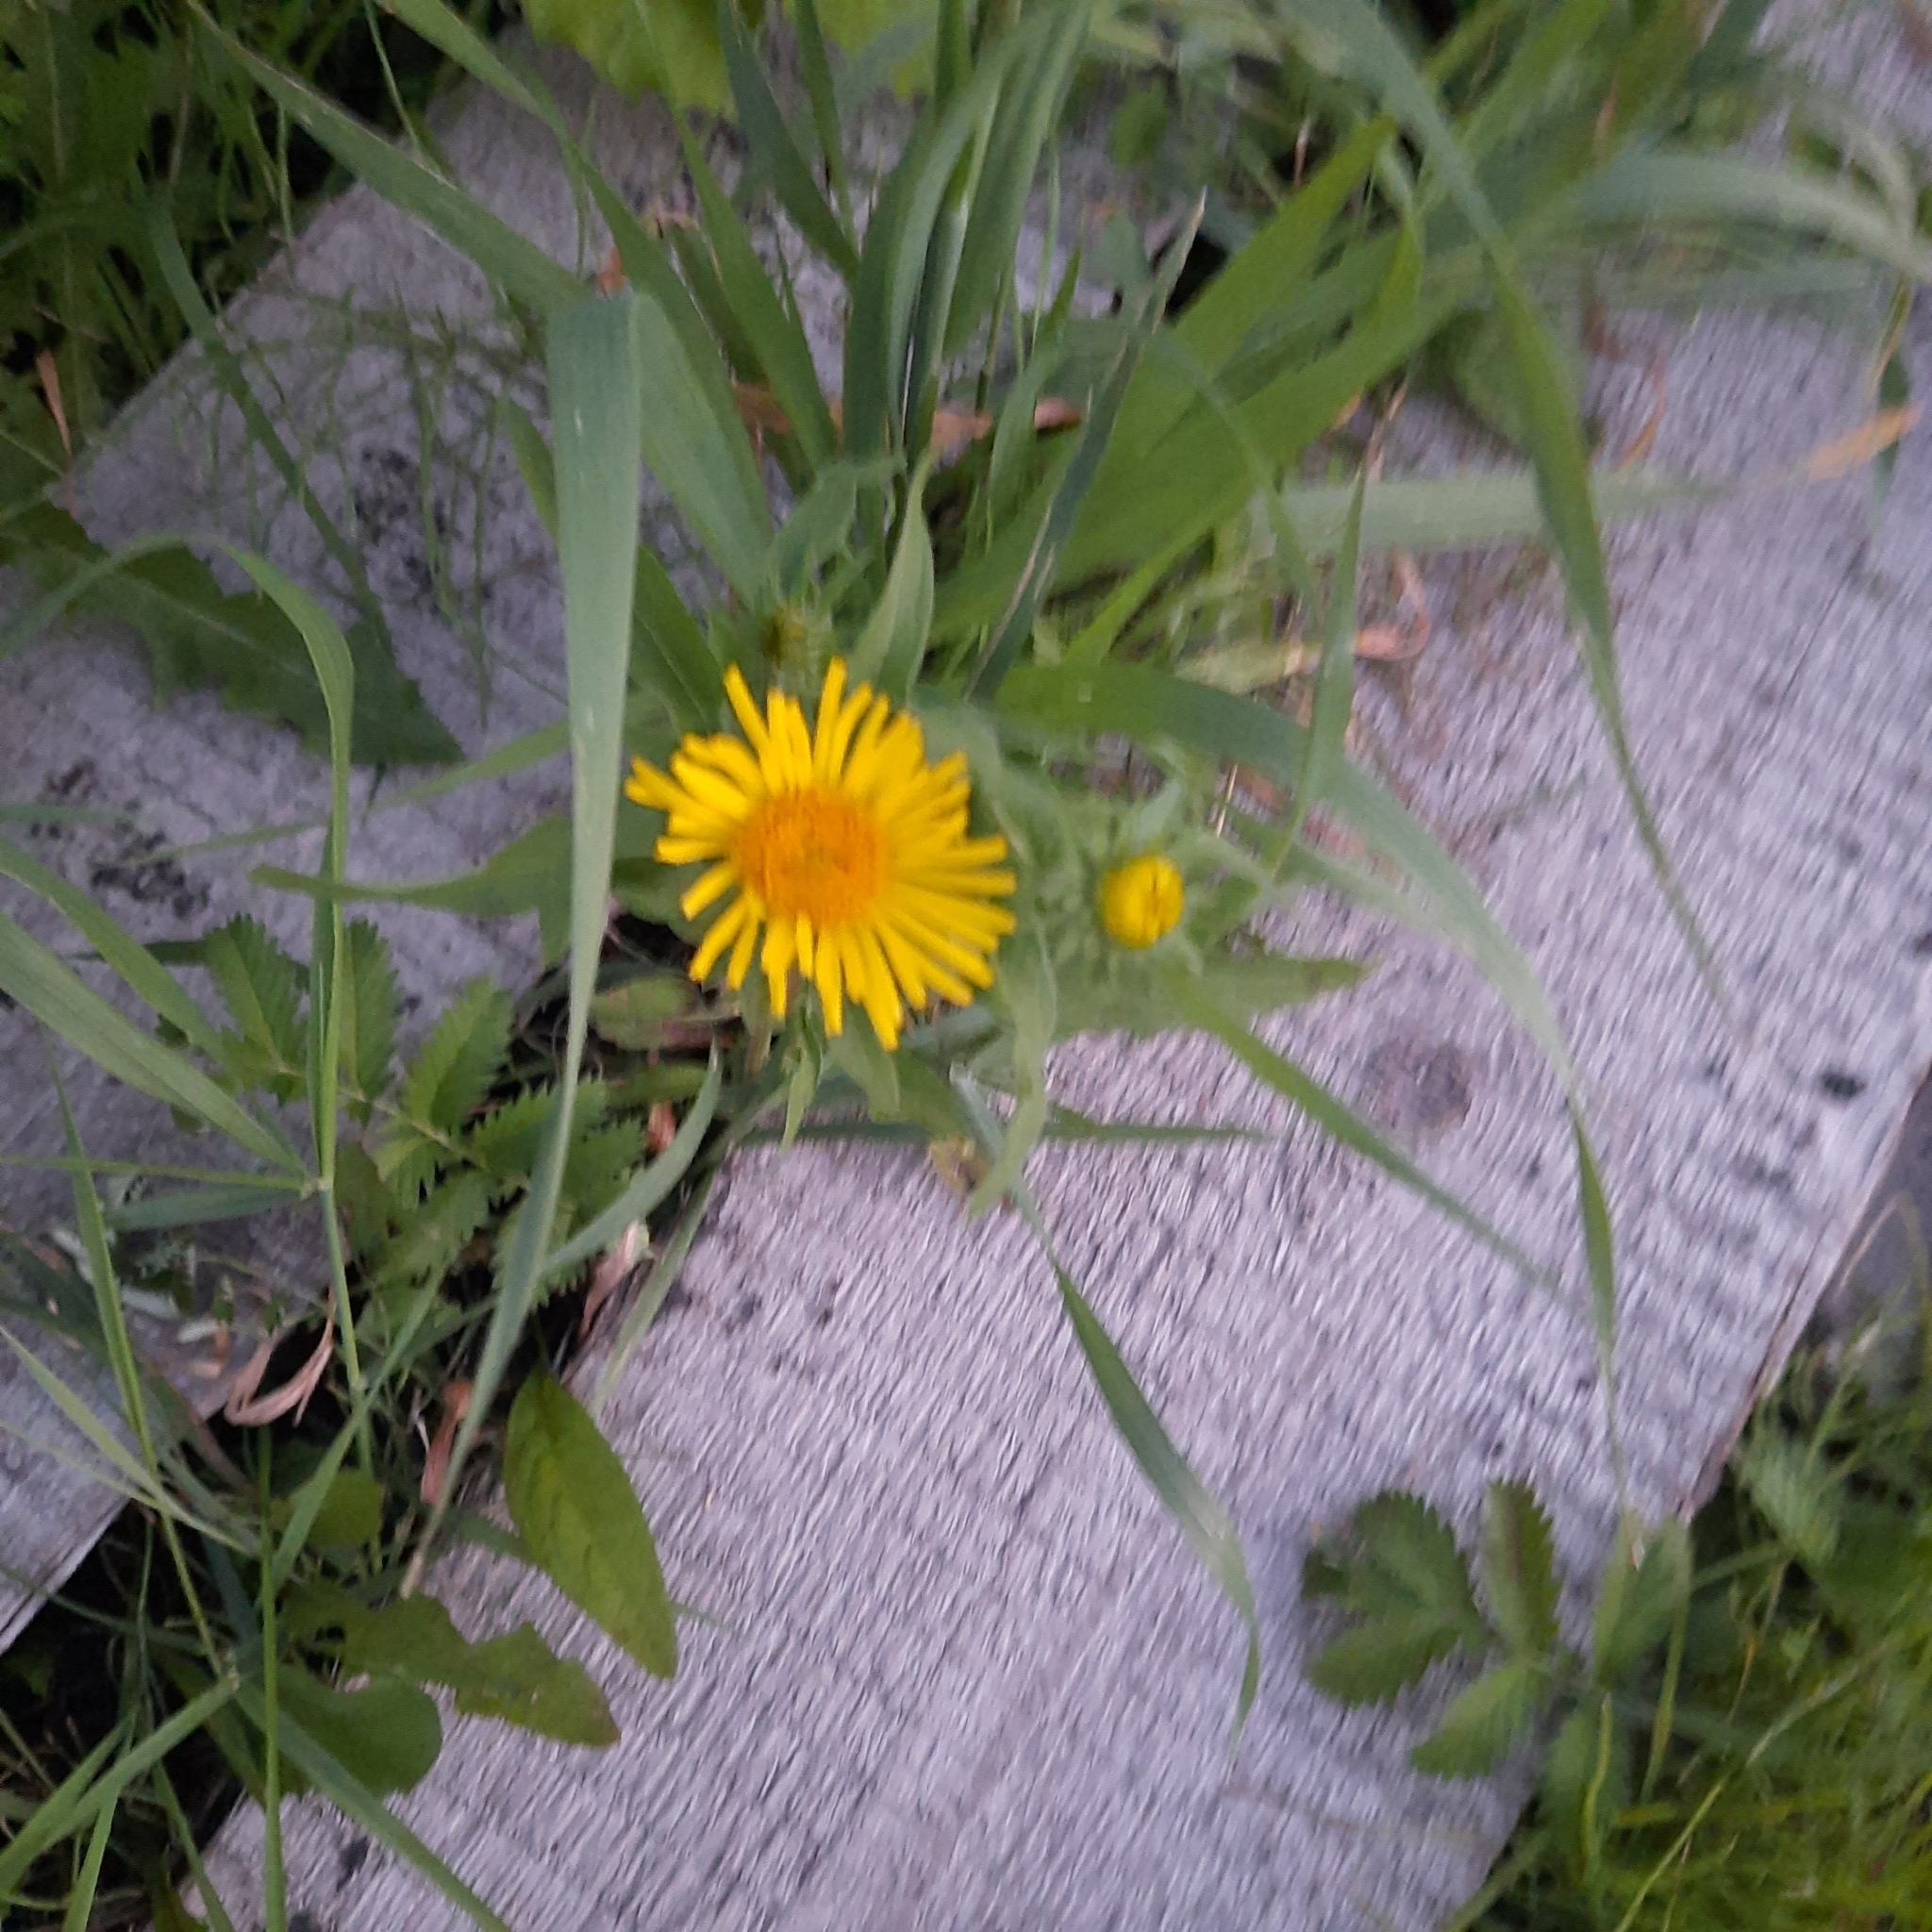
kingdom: Plantae
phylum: Tracheophyta
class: Magnoliopsida
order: Asterales
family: Asteraceae
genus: Pentanema
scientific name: Pentanema britannicum
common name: British elecampane
